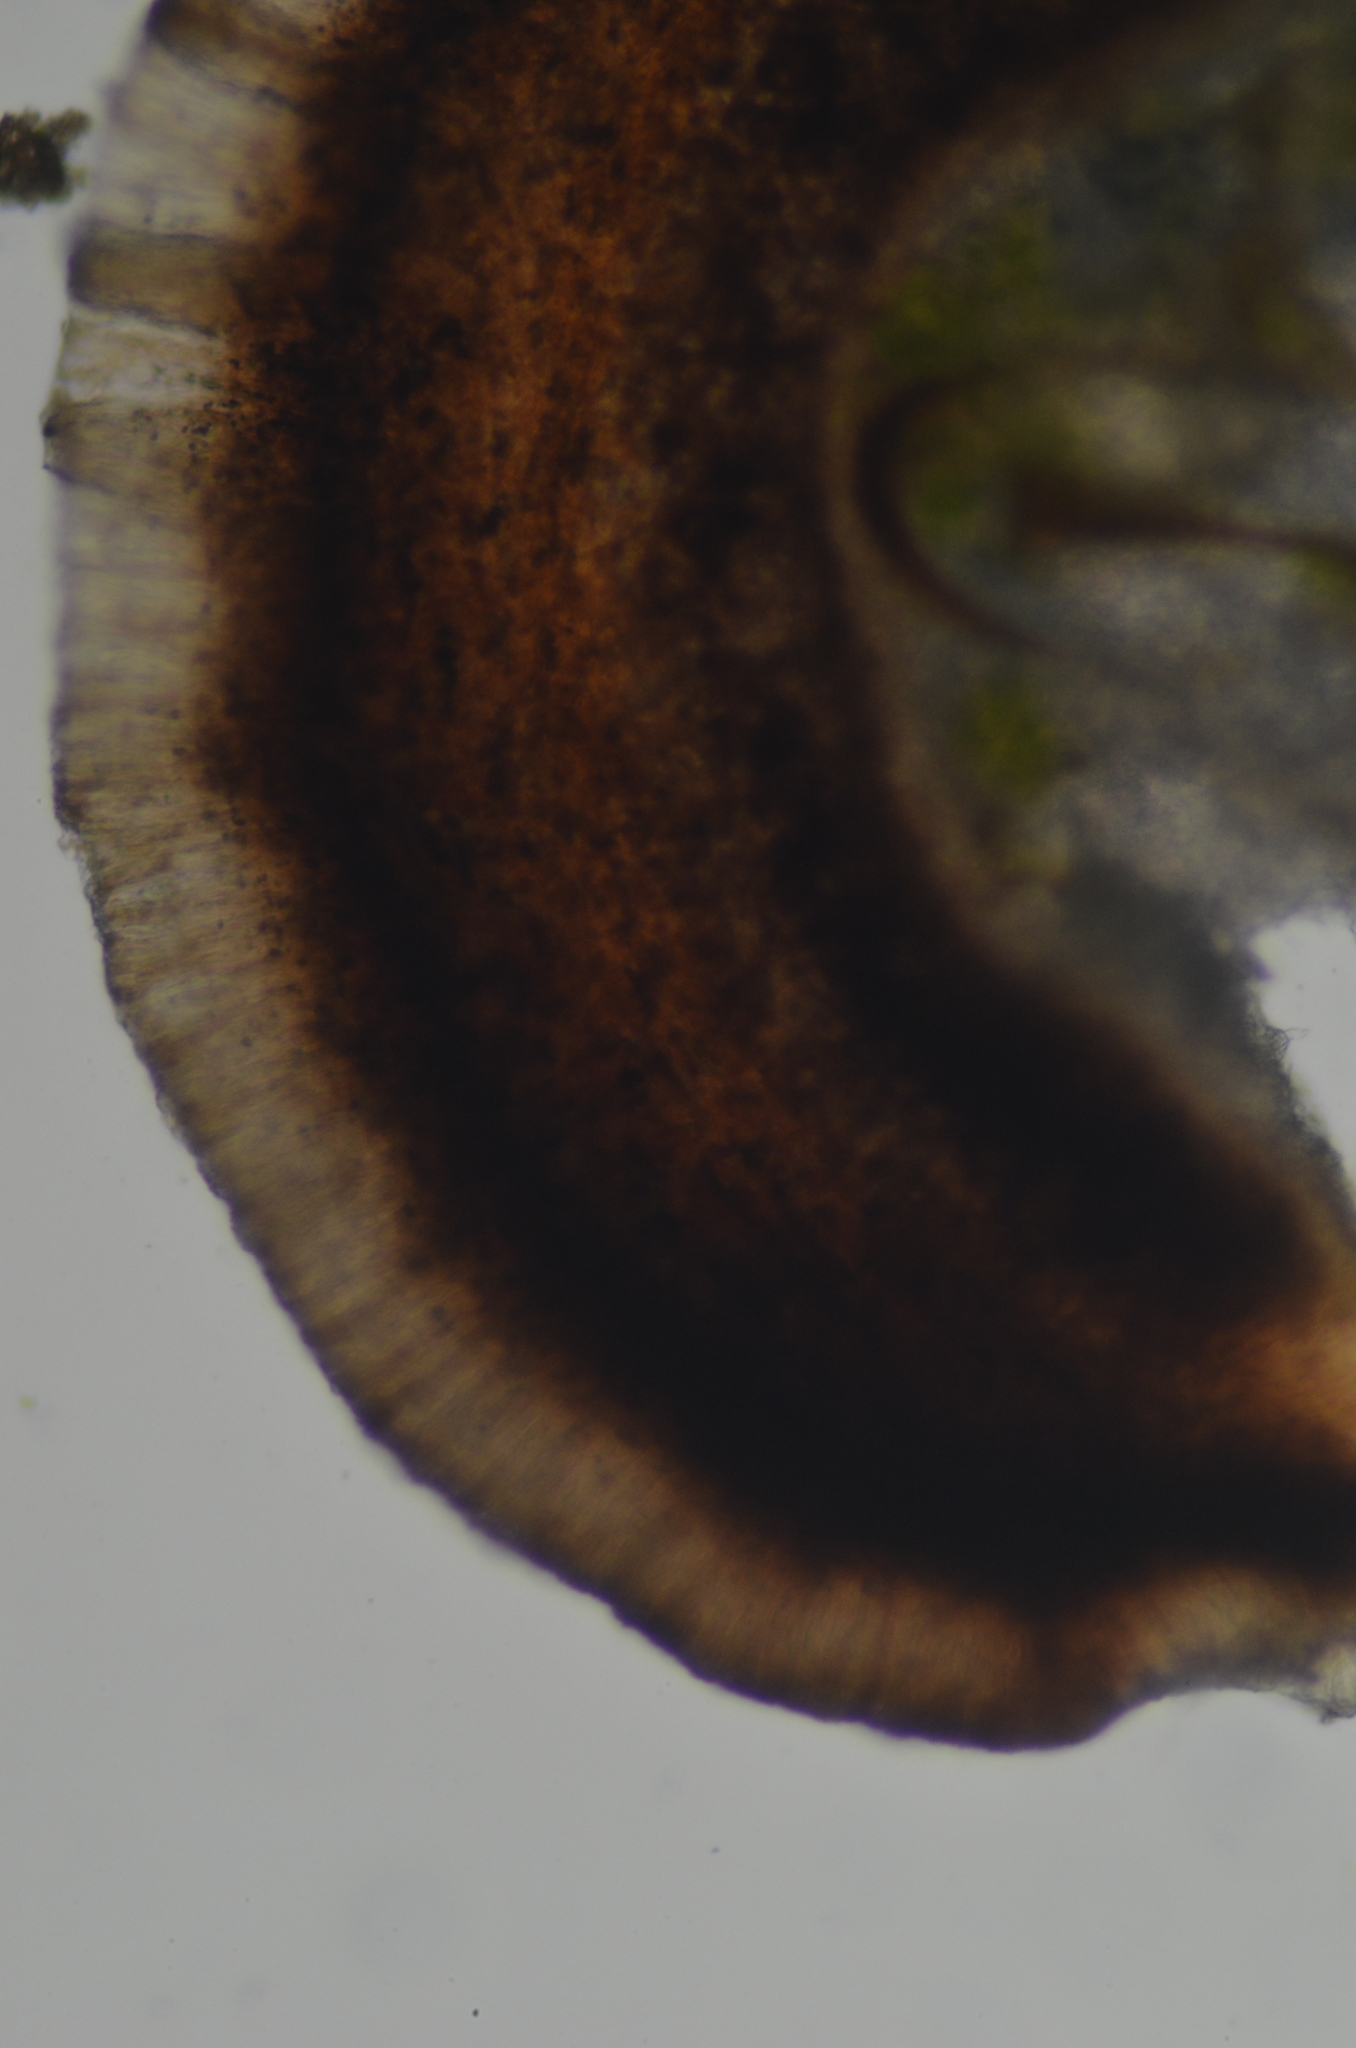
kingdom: Fungi
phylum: Ascomycota
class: Lecanoromycetes
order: Lecideales
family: Lecideaceae
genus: Bryobilimbia
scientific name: Bryobilimbia hypnorum
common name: Mossy dot lichen
